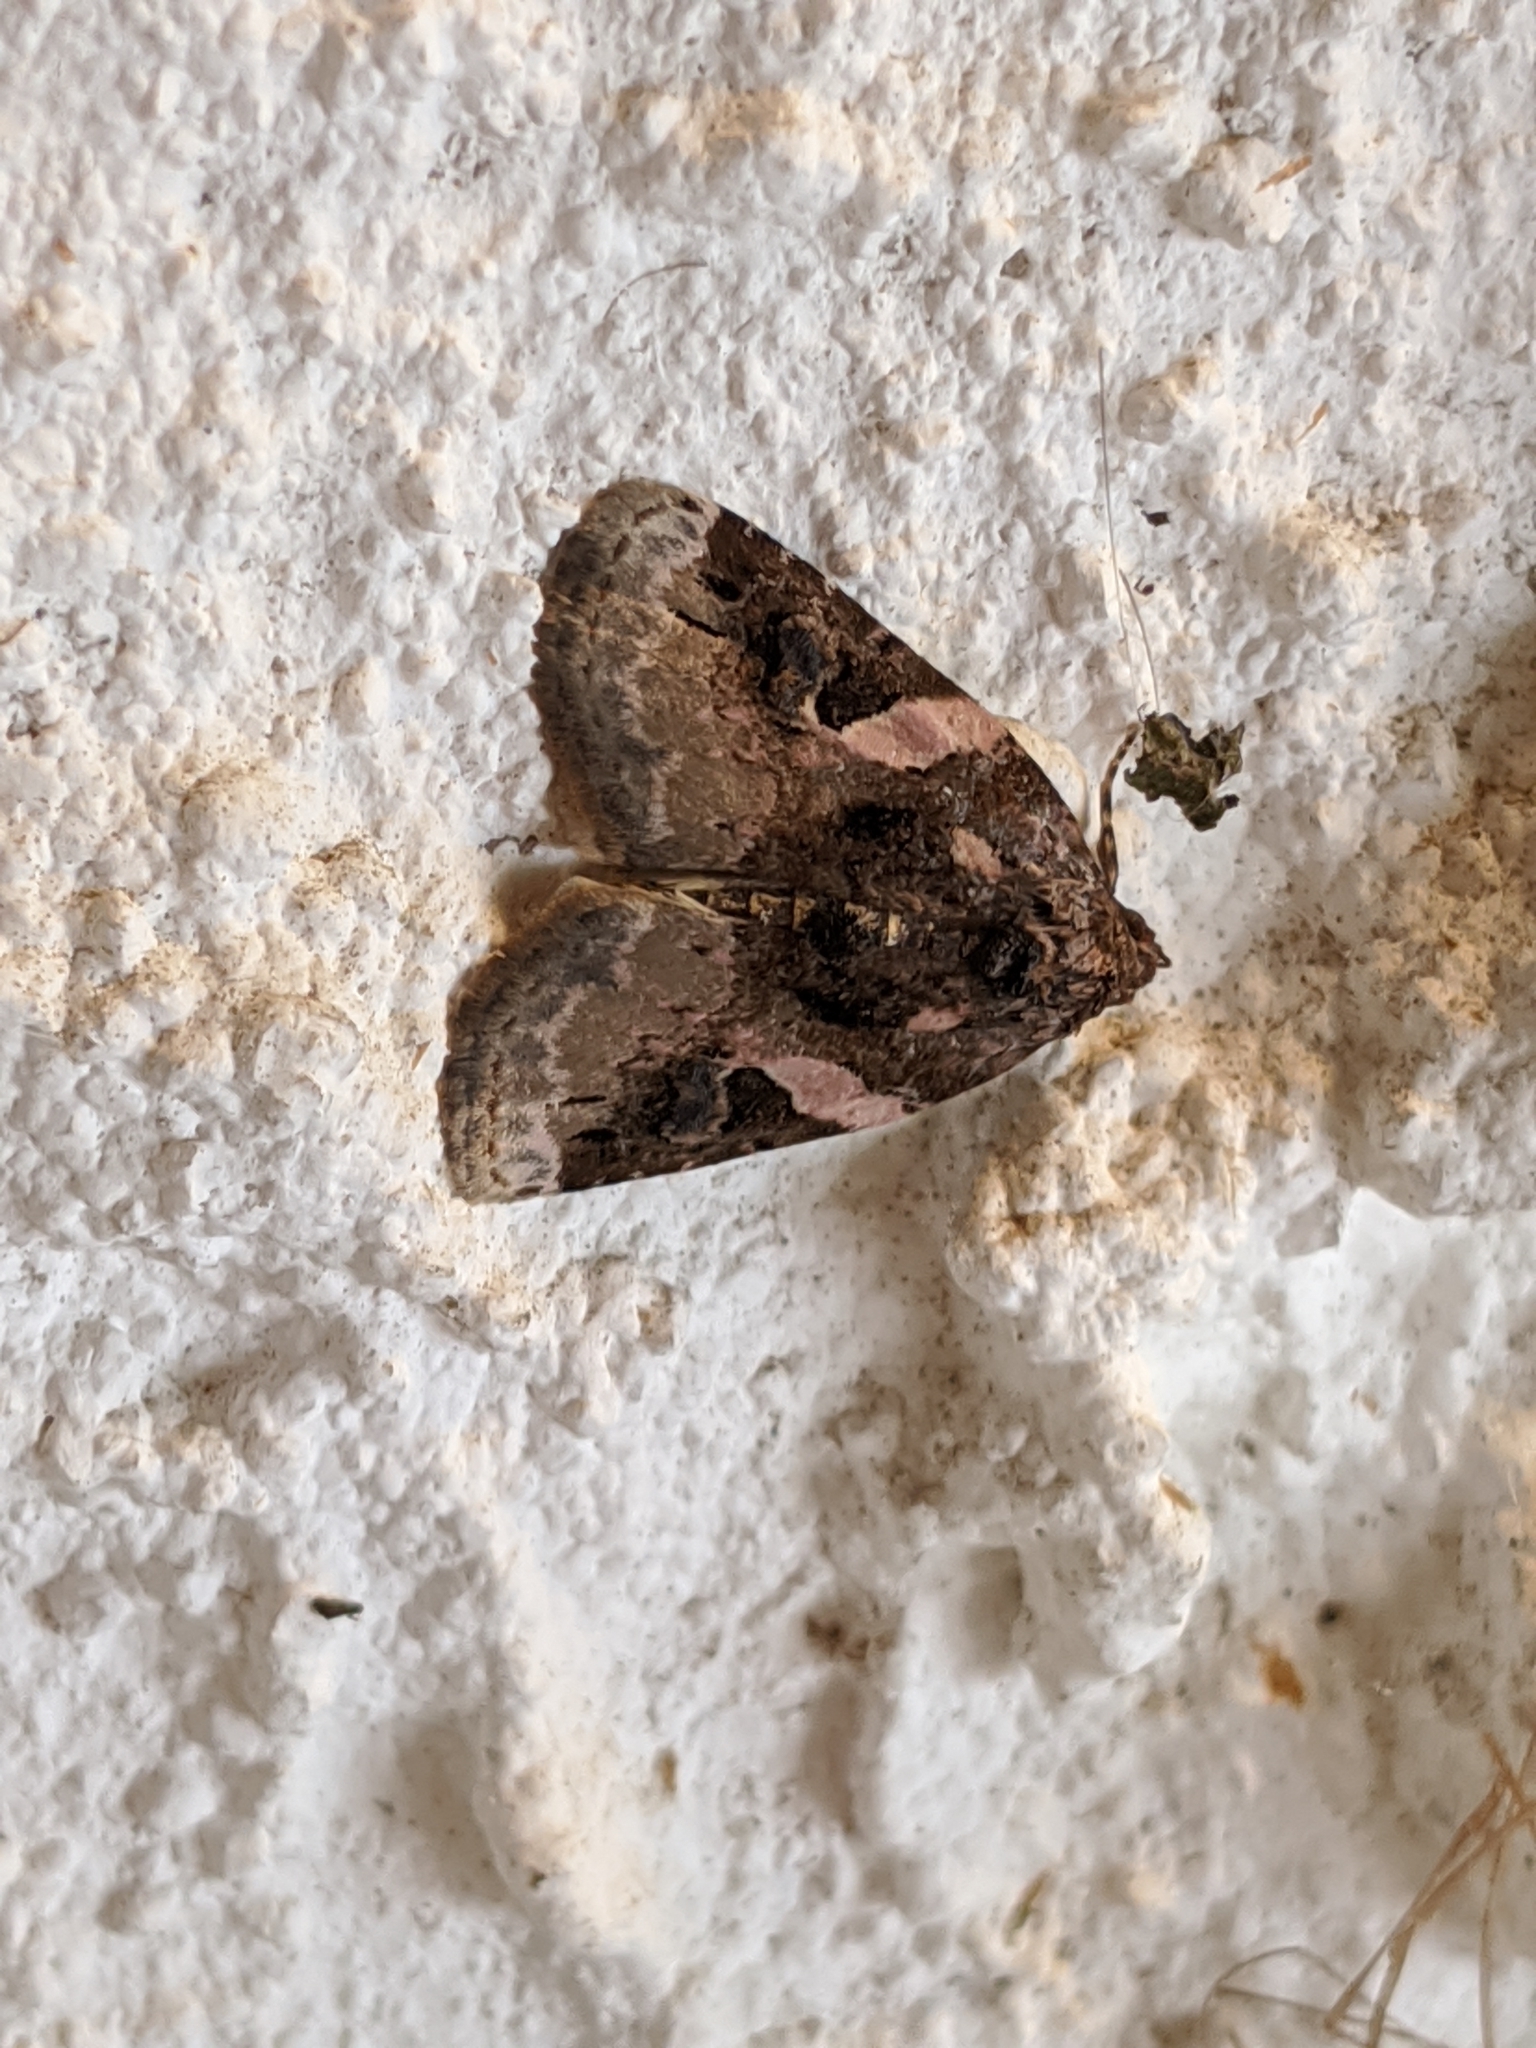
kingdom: Animalia
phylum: Arthropoda
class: Insecta
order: Lepidoptera
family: Noctuidae
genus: Pseudeustrotia
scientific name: Pseudeustrotia carneola
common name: Pink-barred lithacodia moth
